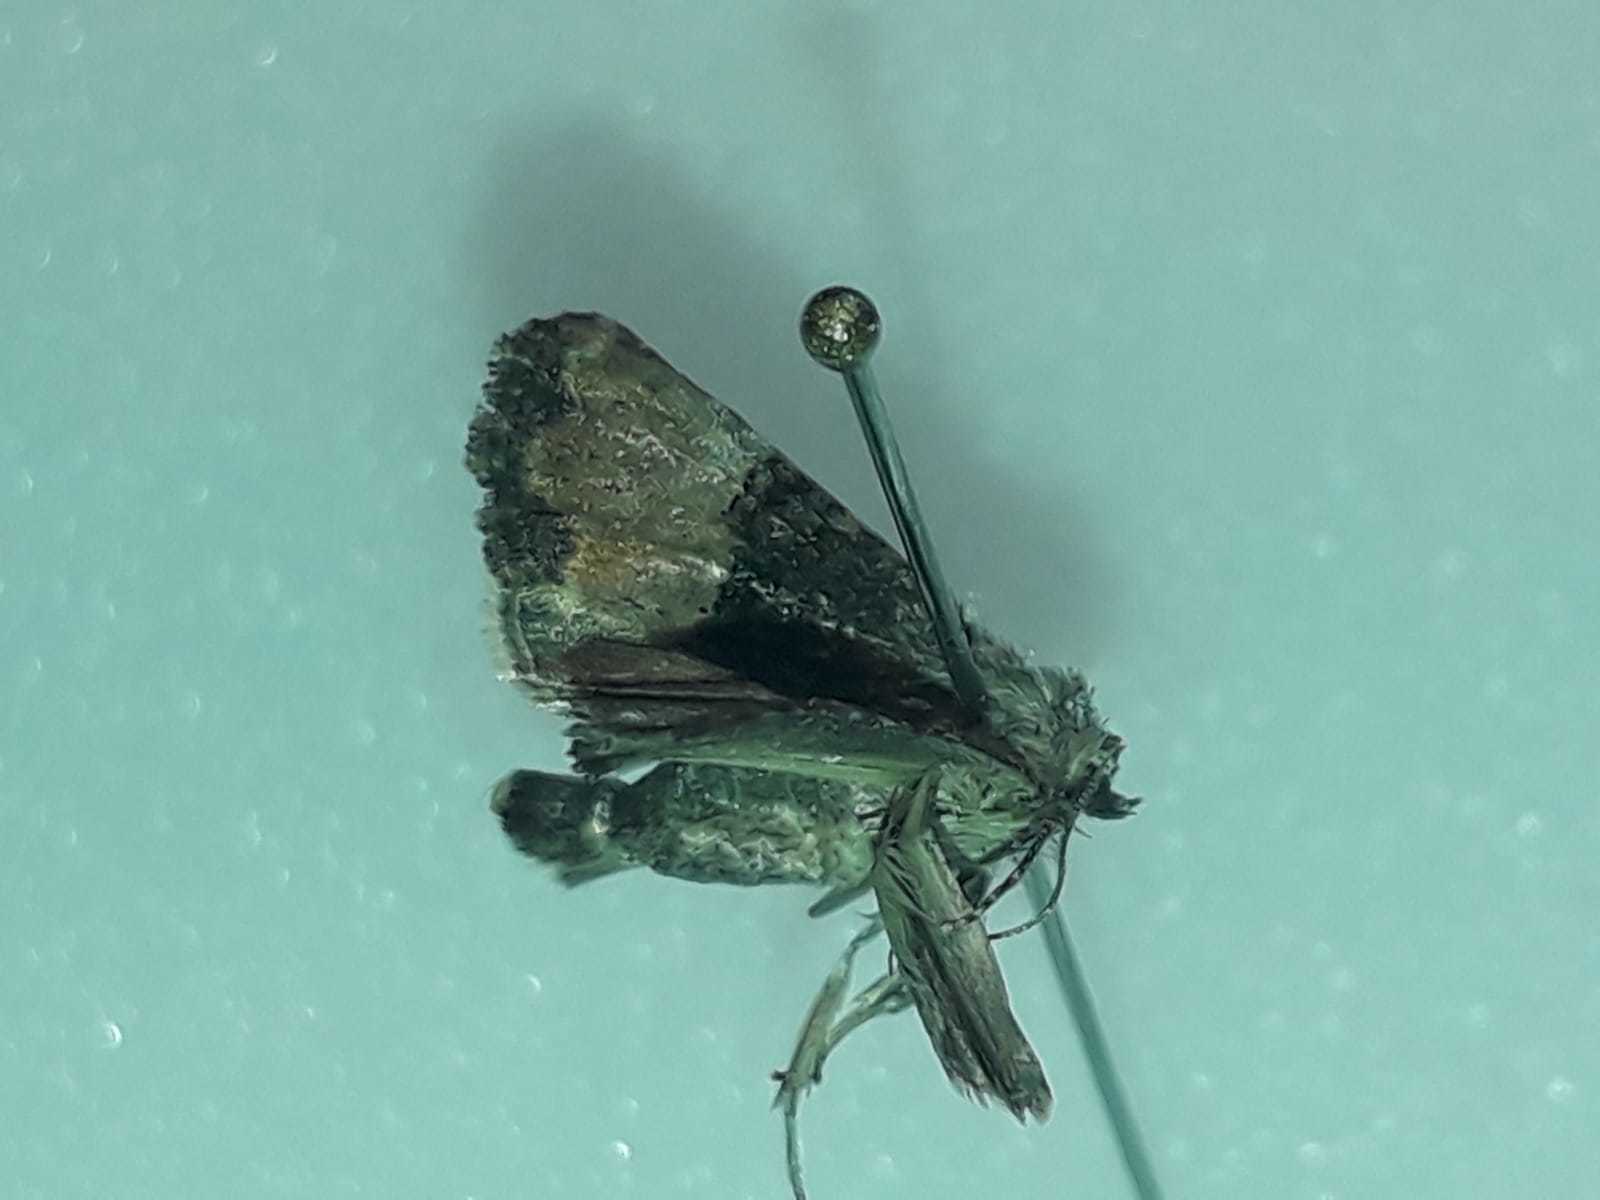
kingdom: Animalia
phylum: Arthropoda
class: Insecta
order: Lepidoptera
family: Noctuidae
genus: Mesoligia
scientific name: Mesoligia furuncula
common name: Cloaked minor
